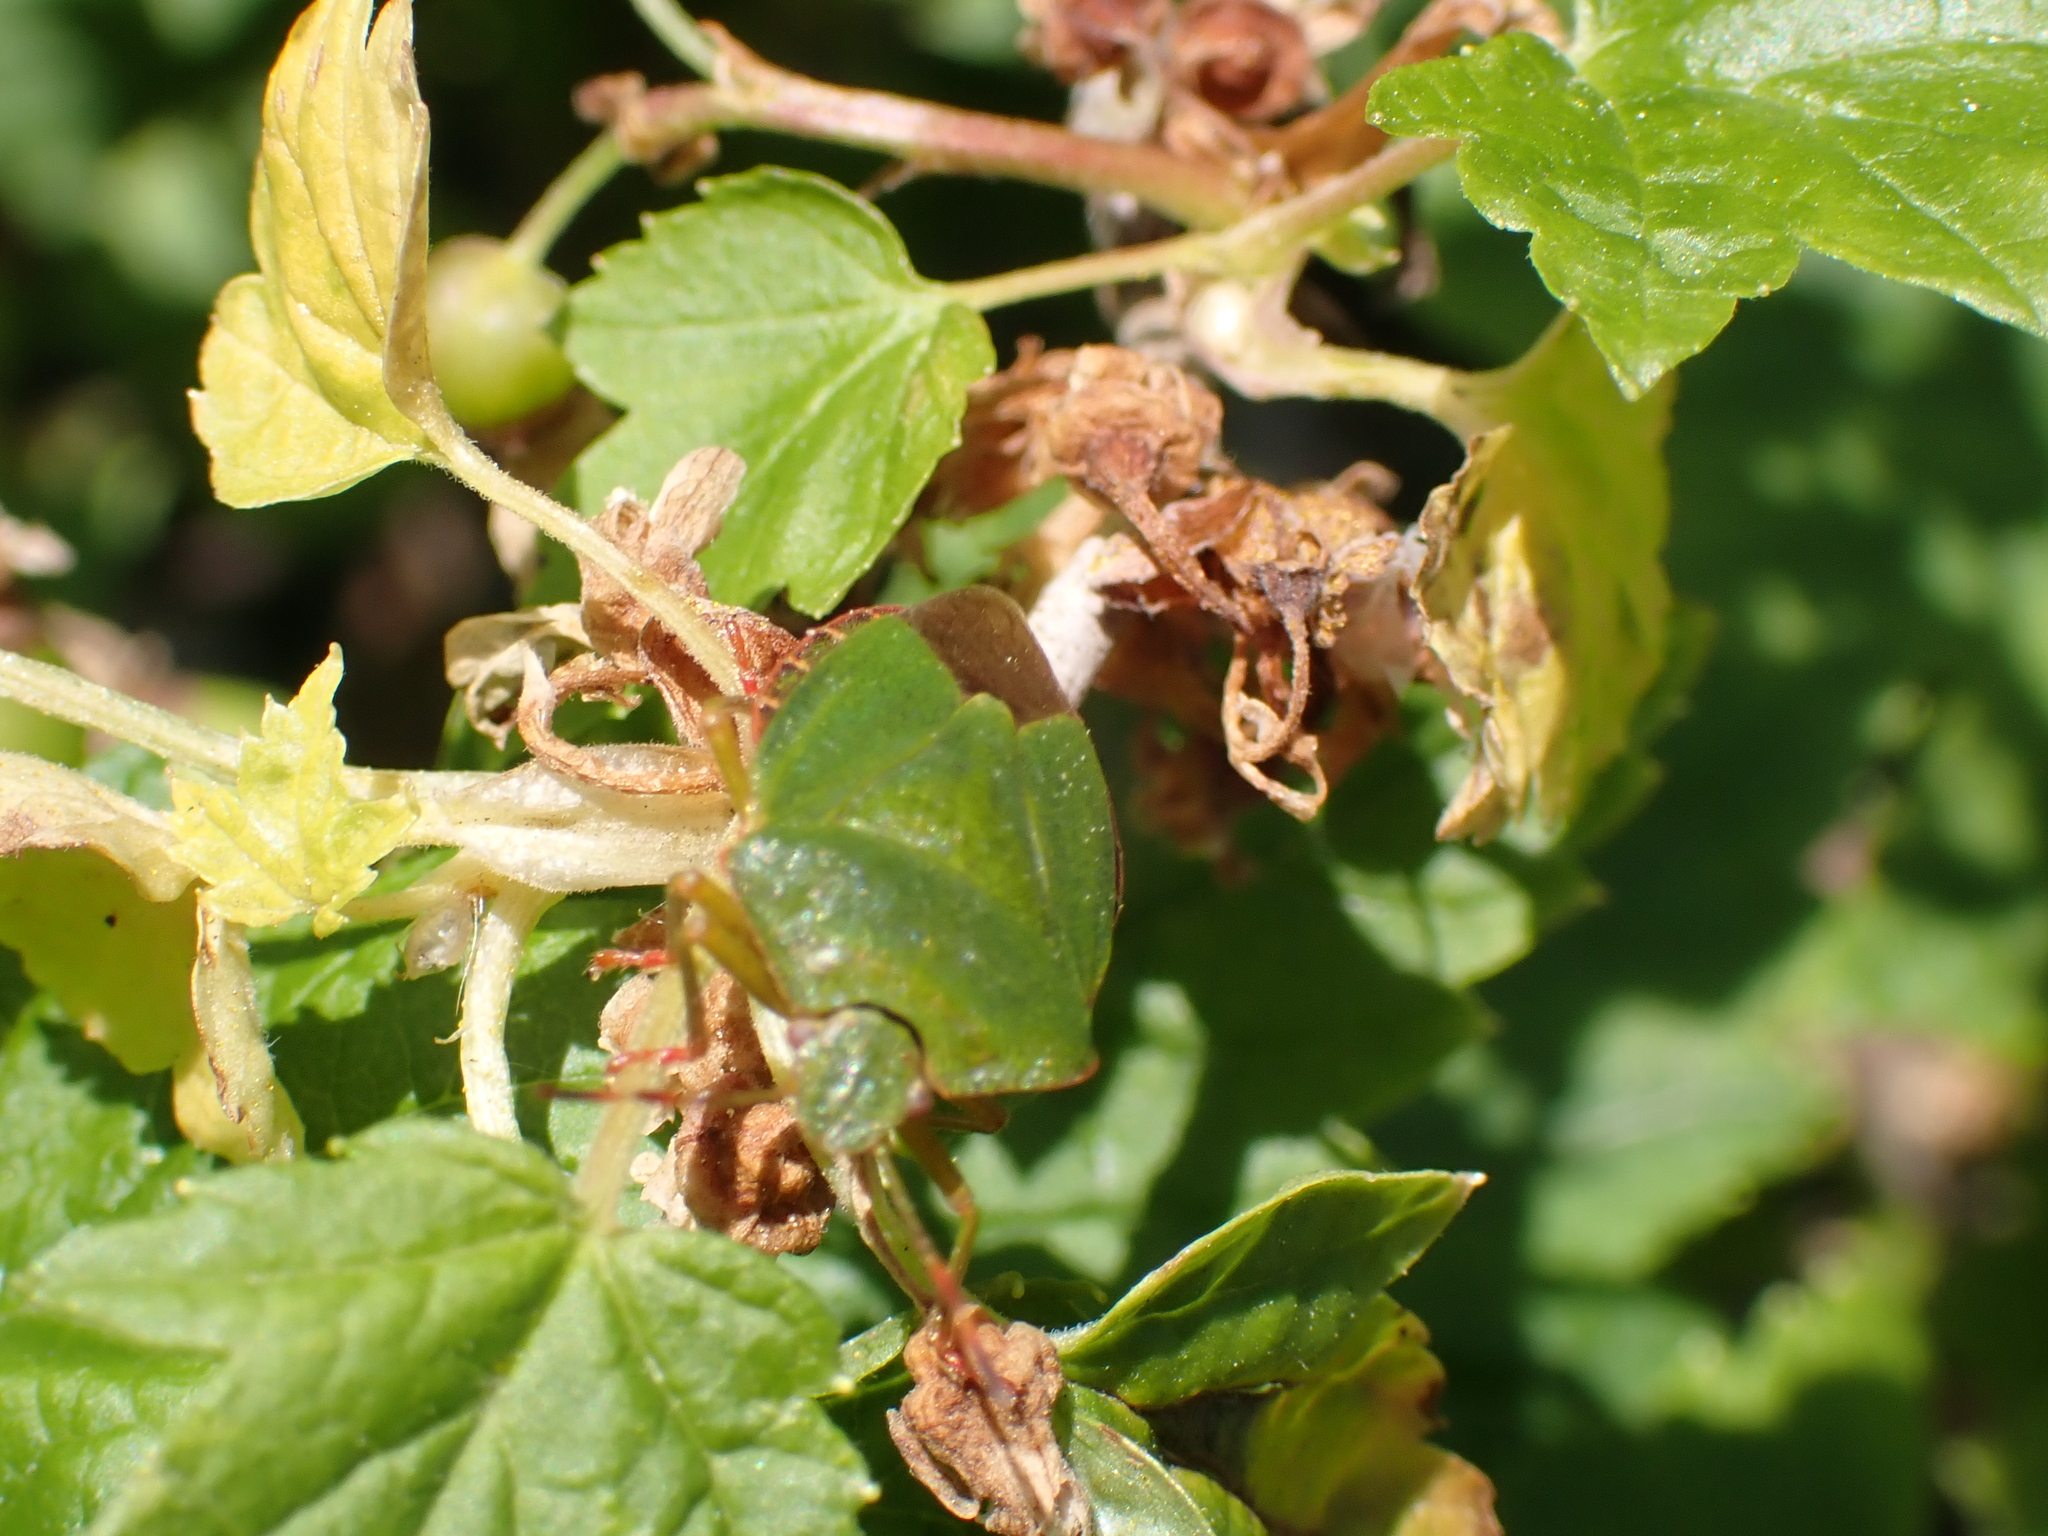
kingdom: Animalia
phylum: Arthropoda
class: Insecta
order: Hemiptera
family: Pentatomidae
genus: Palomena
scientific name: Palomena prasina
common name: Green shieldbug
